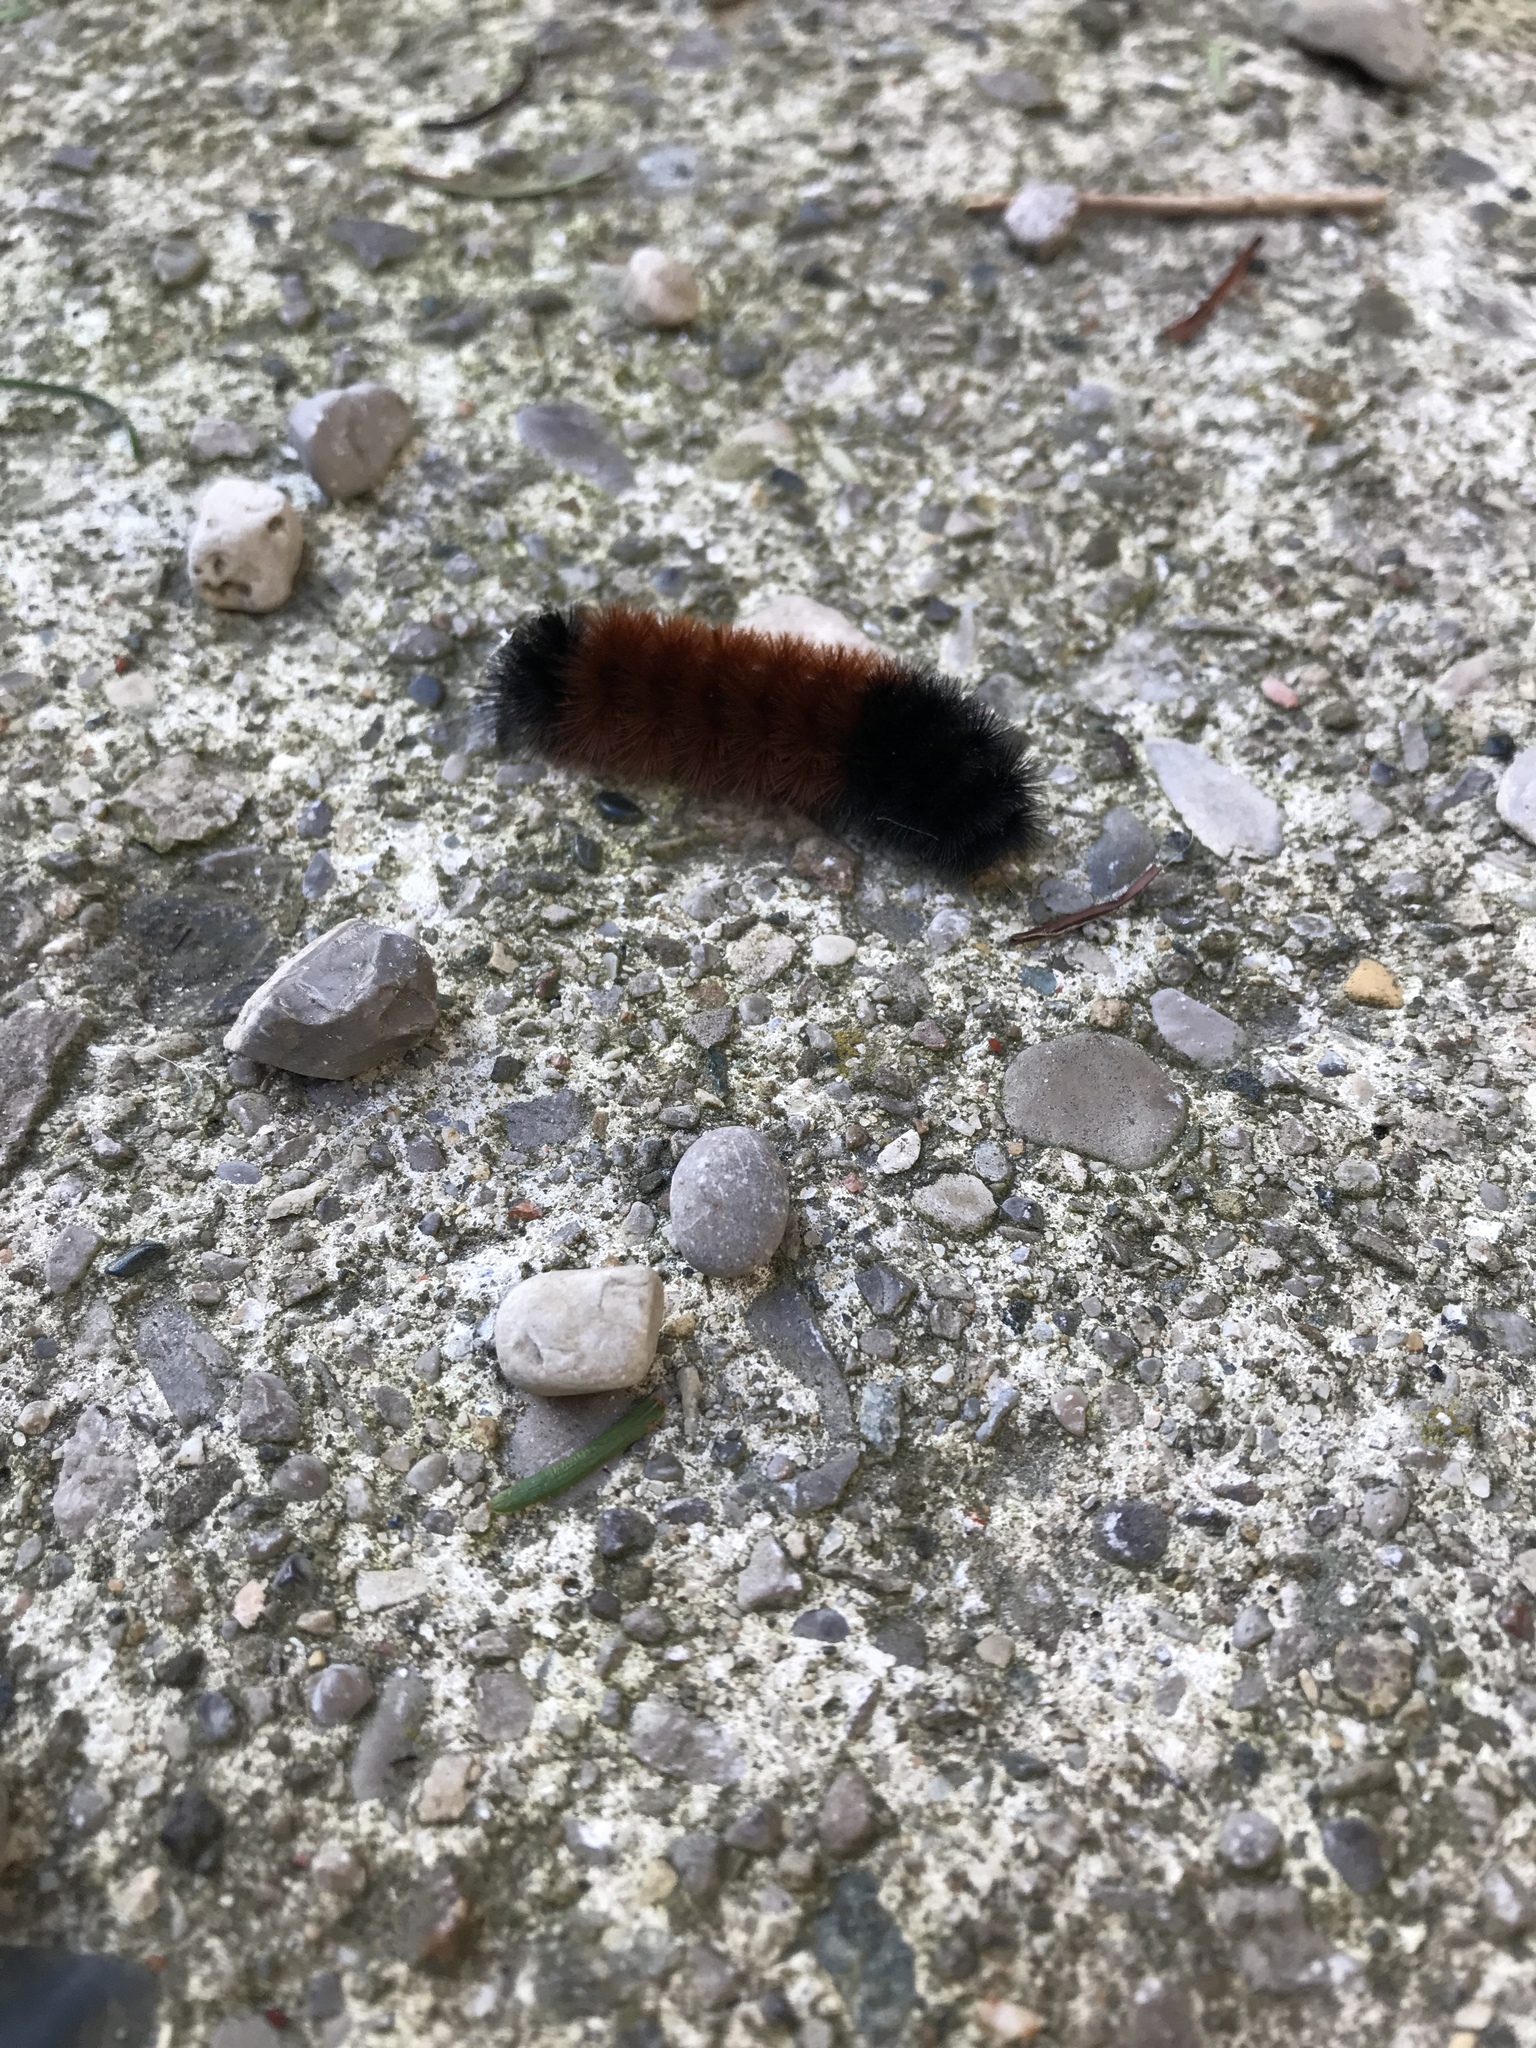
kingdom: Animalia
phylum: Arthropoda
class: Insecta
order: Lepidoptera
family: Erebidae
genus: Pyrrharctia
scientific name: Pyrrharctia isabella
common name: Isabella tiger moth
